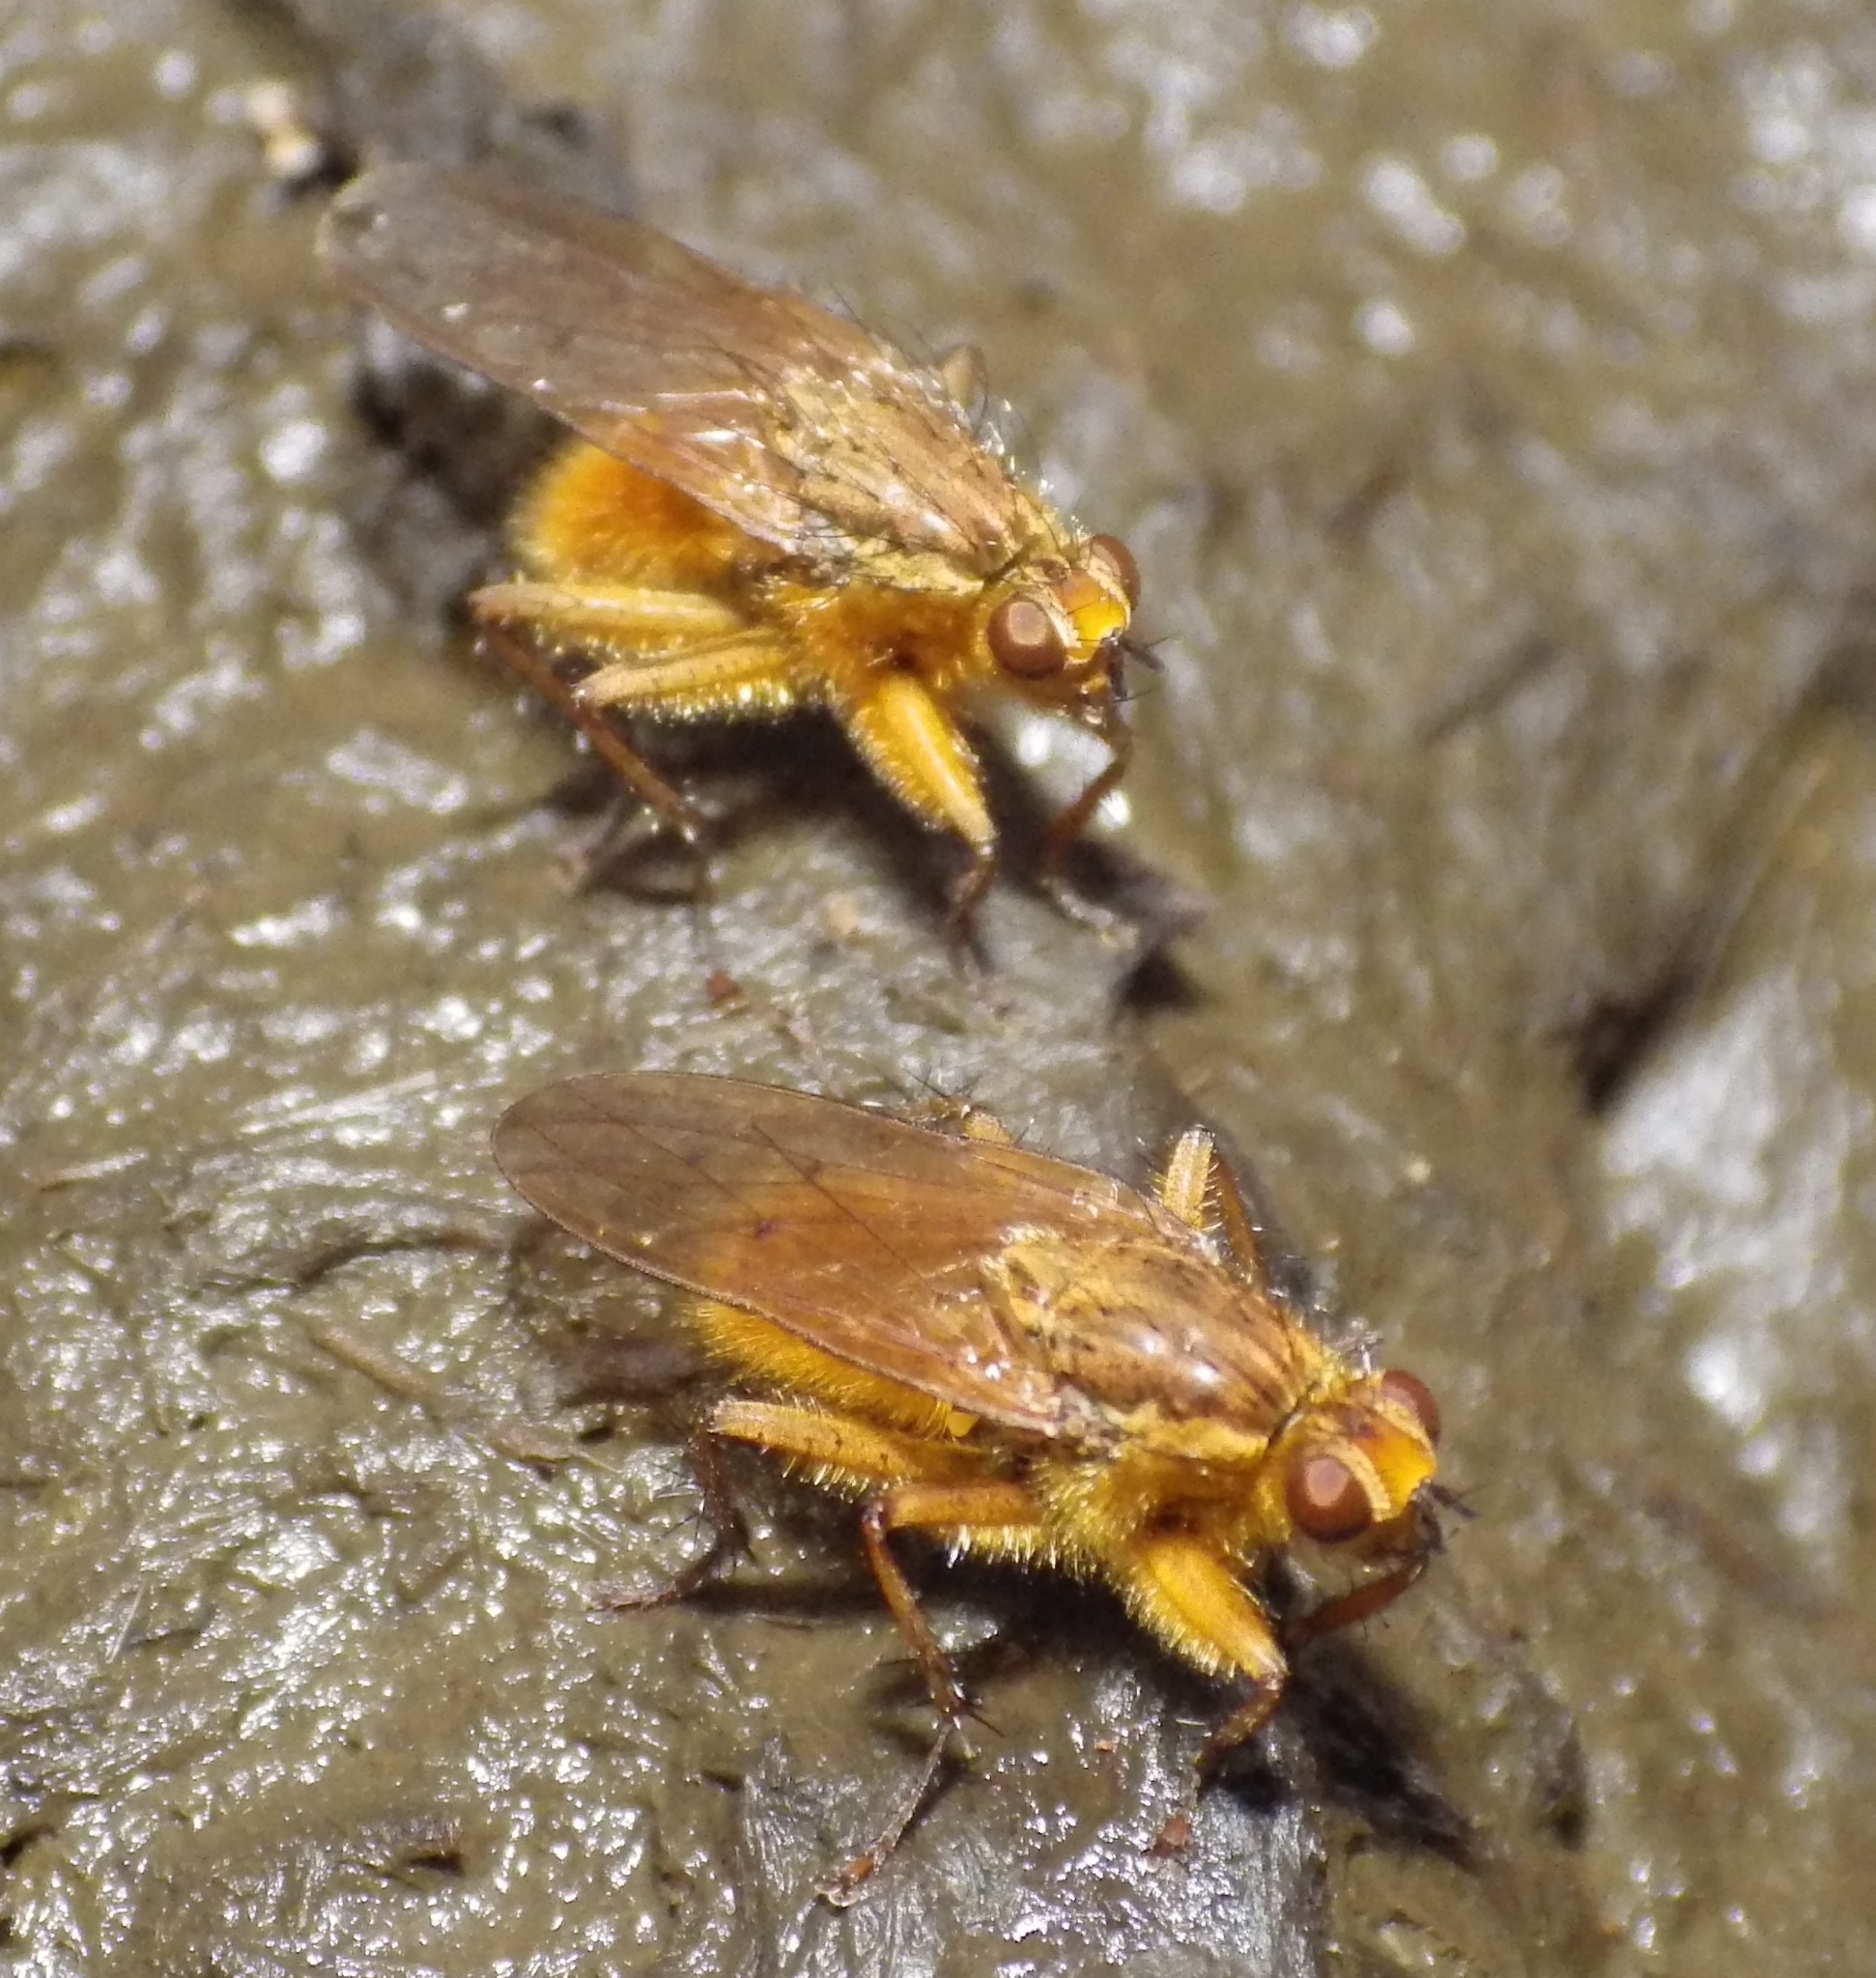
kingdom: Animalia
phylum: Arthropoda
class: Insecta
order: Diptera
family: Scathophagidae
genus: Scathophaga
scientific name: Scathophaga stercoraria
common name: Yellow dung fly
